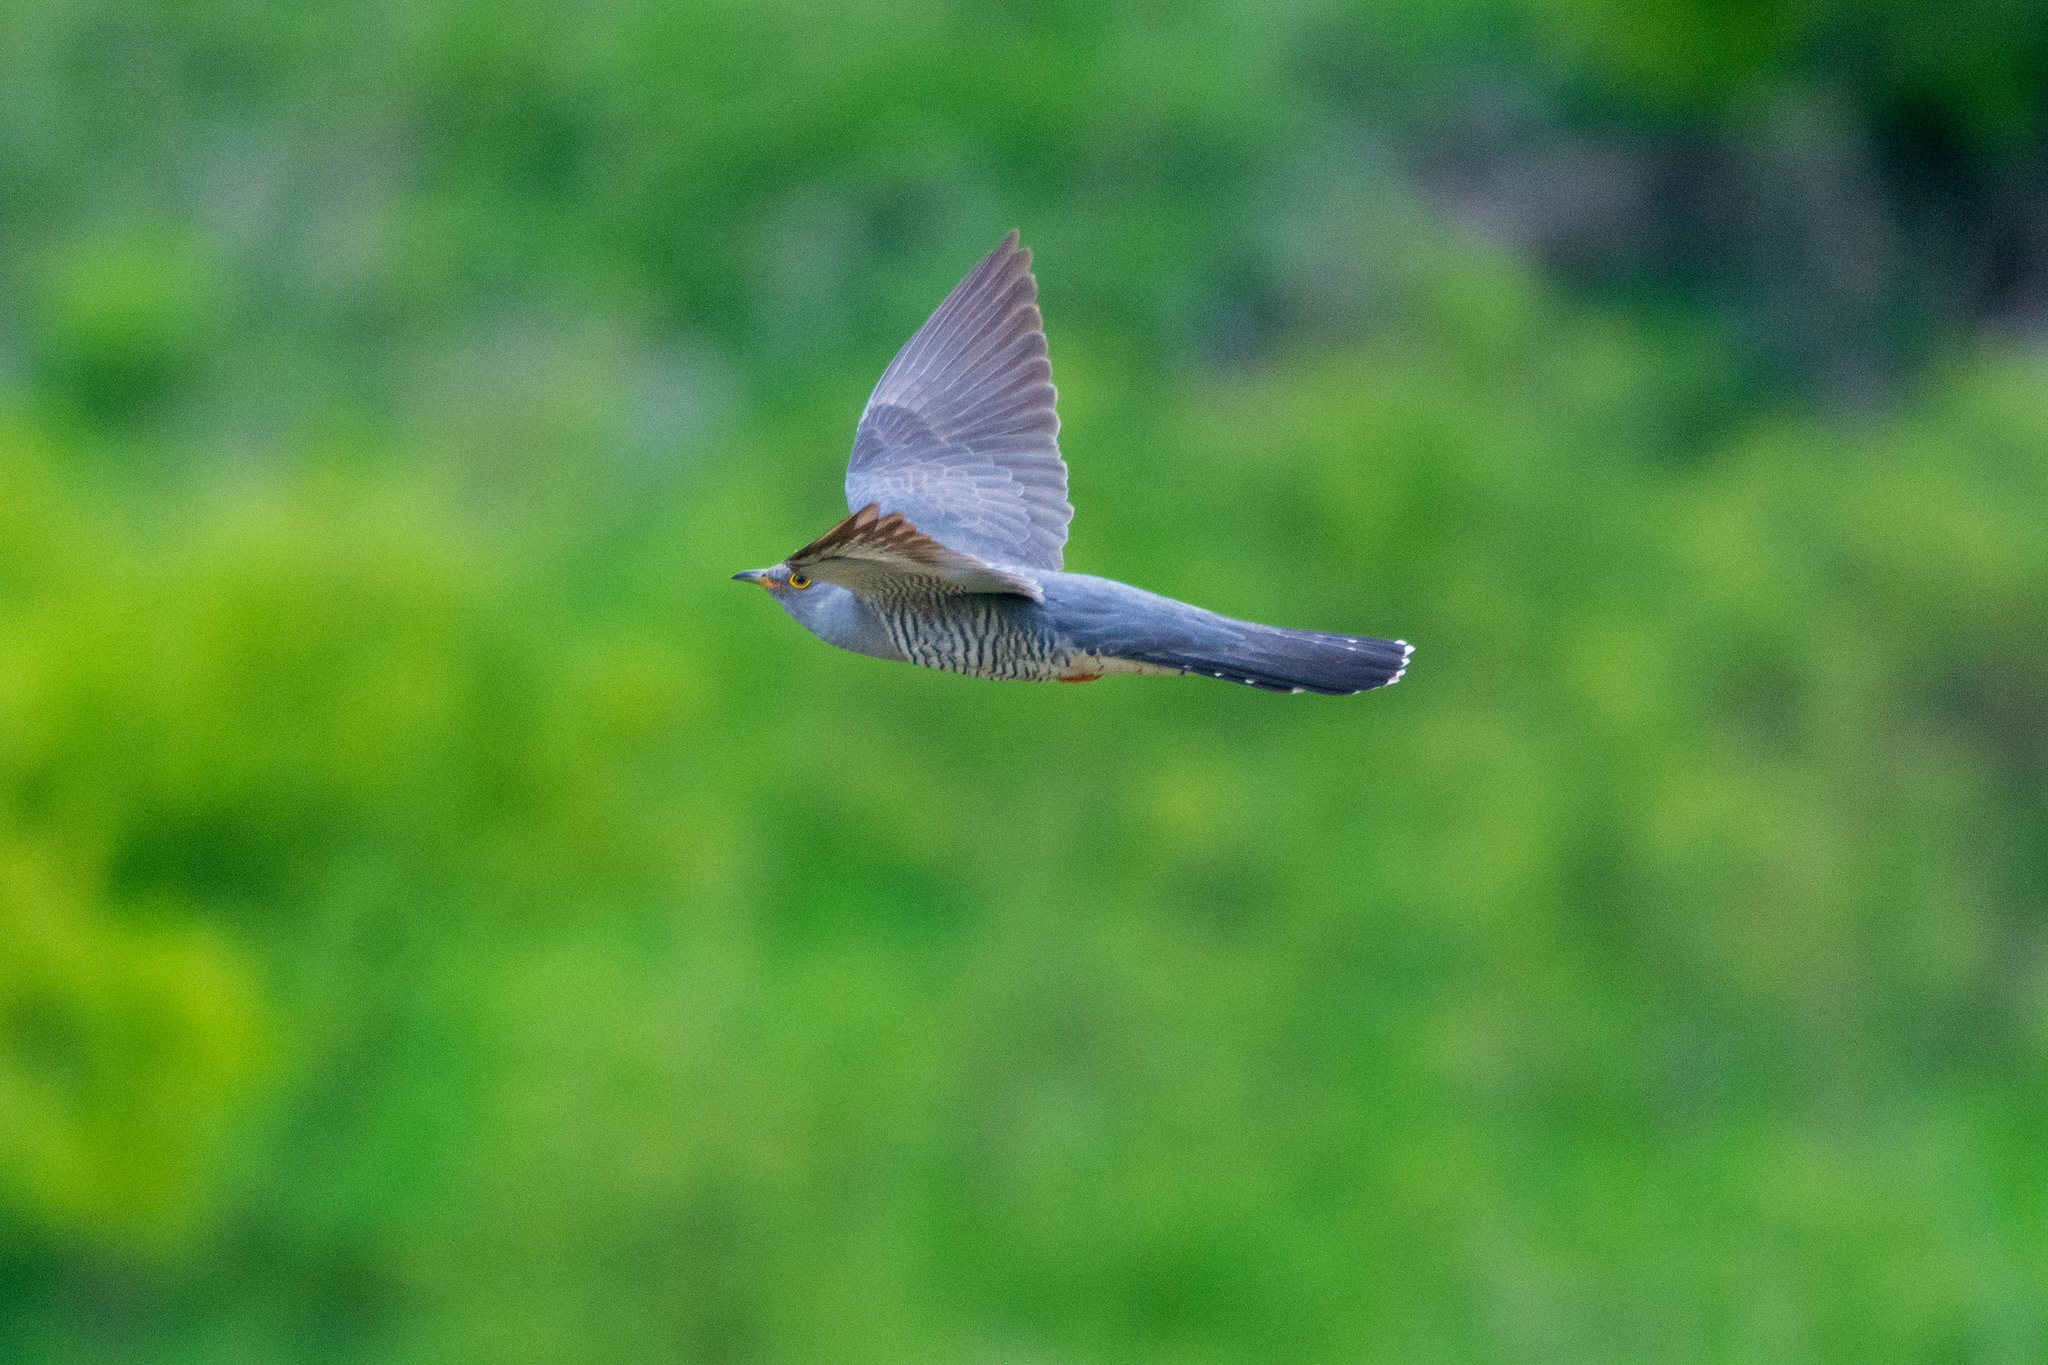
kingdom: Animalia
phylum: Chordata
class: Aves
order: Cuculiformes
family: Cuculidae
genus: Cuculus
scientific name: Cuculus canorus
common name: Common cuckoo
